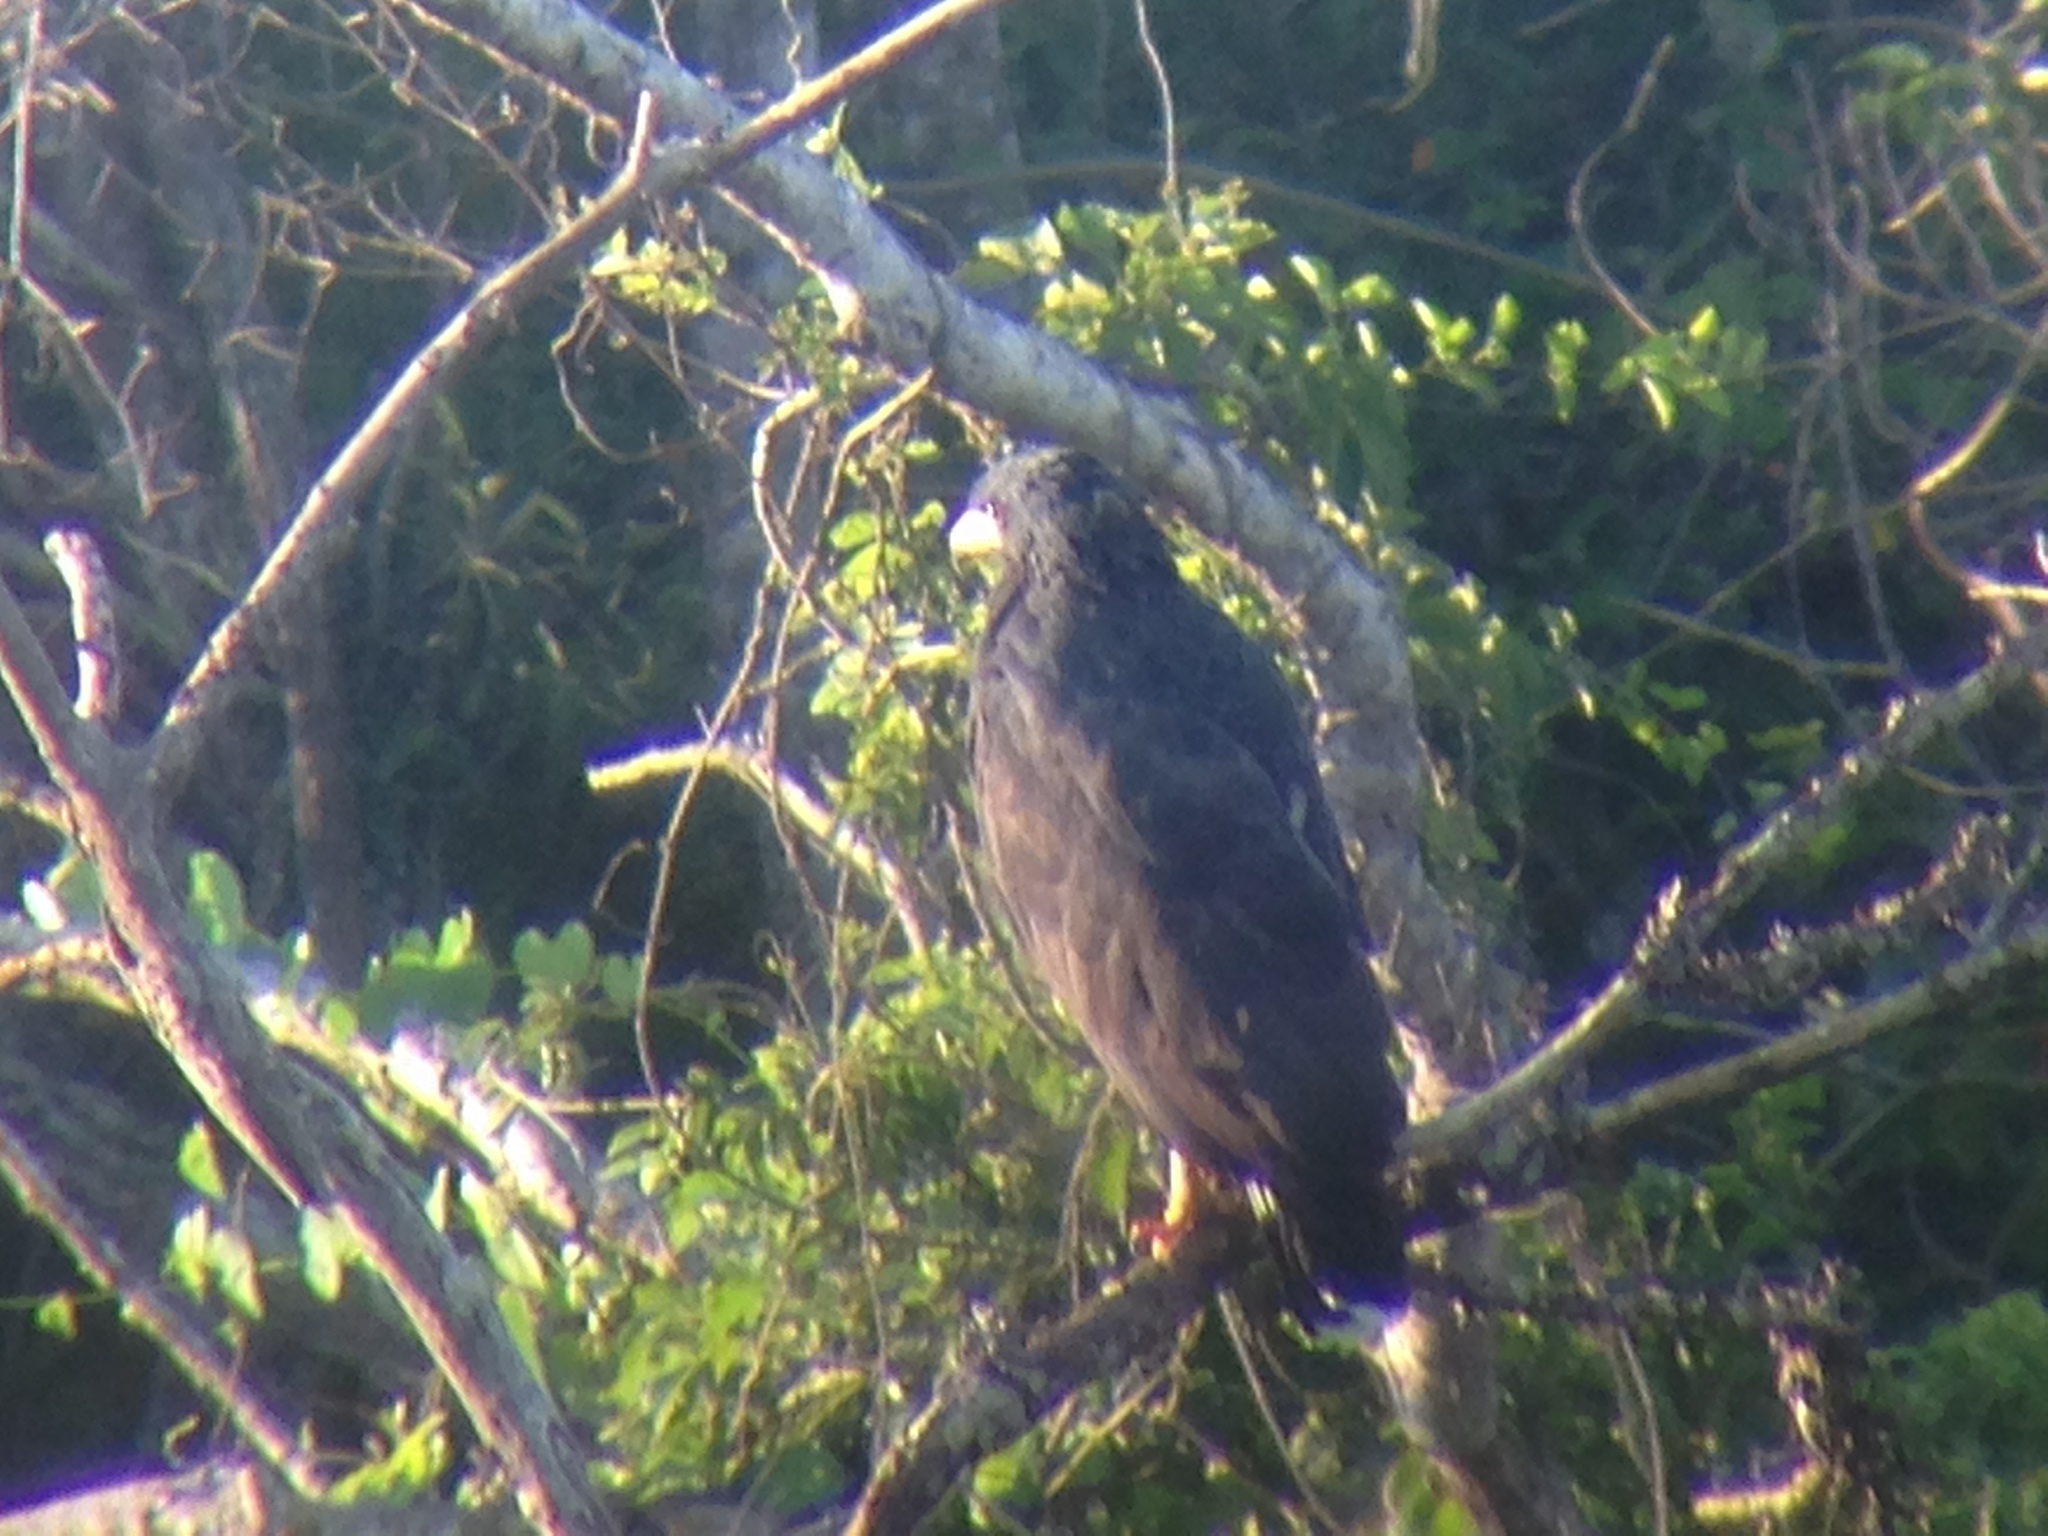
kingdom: Animalia
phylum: Chordata
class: Aves
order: Accipitriformes
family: Accipitridae
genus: Buteogallus
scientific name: Buteogallus anthracinus
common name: Common black hawk
